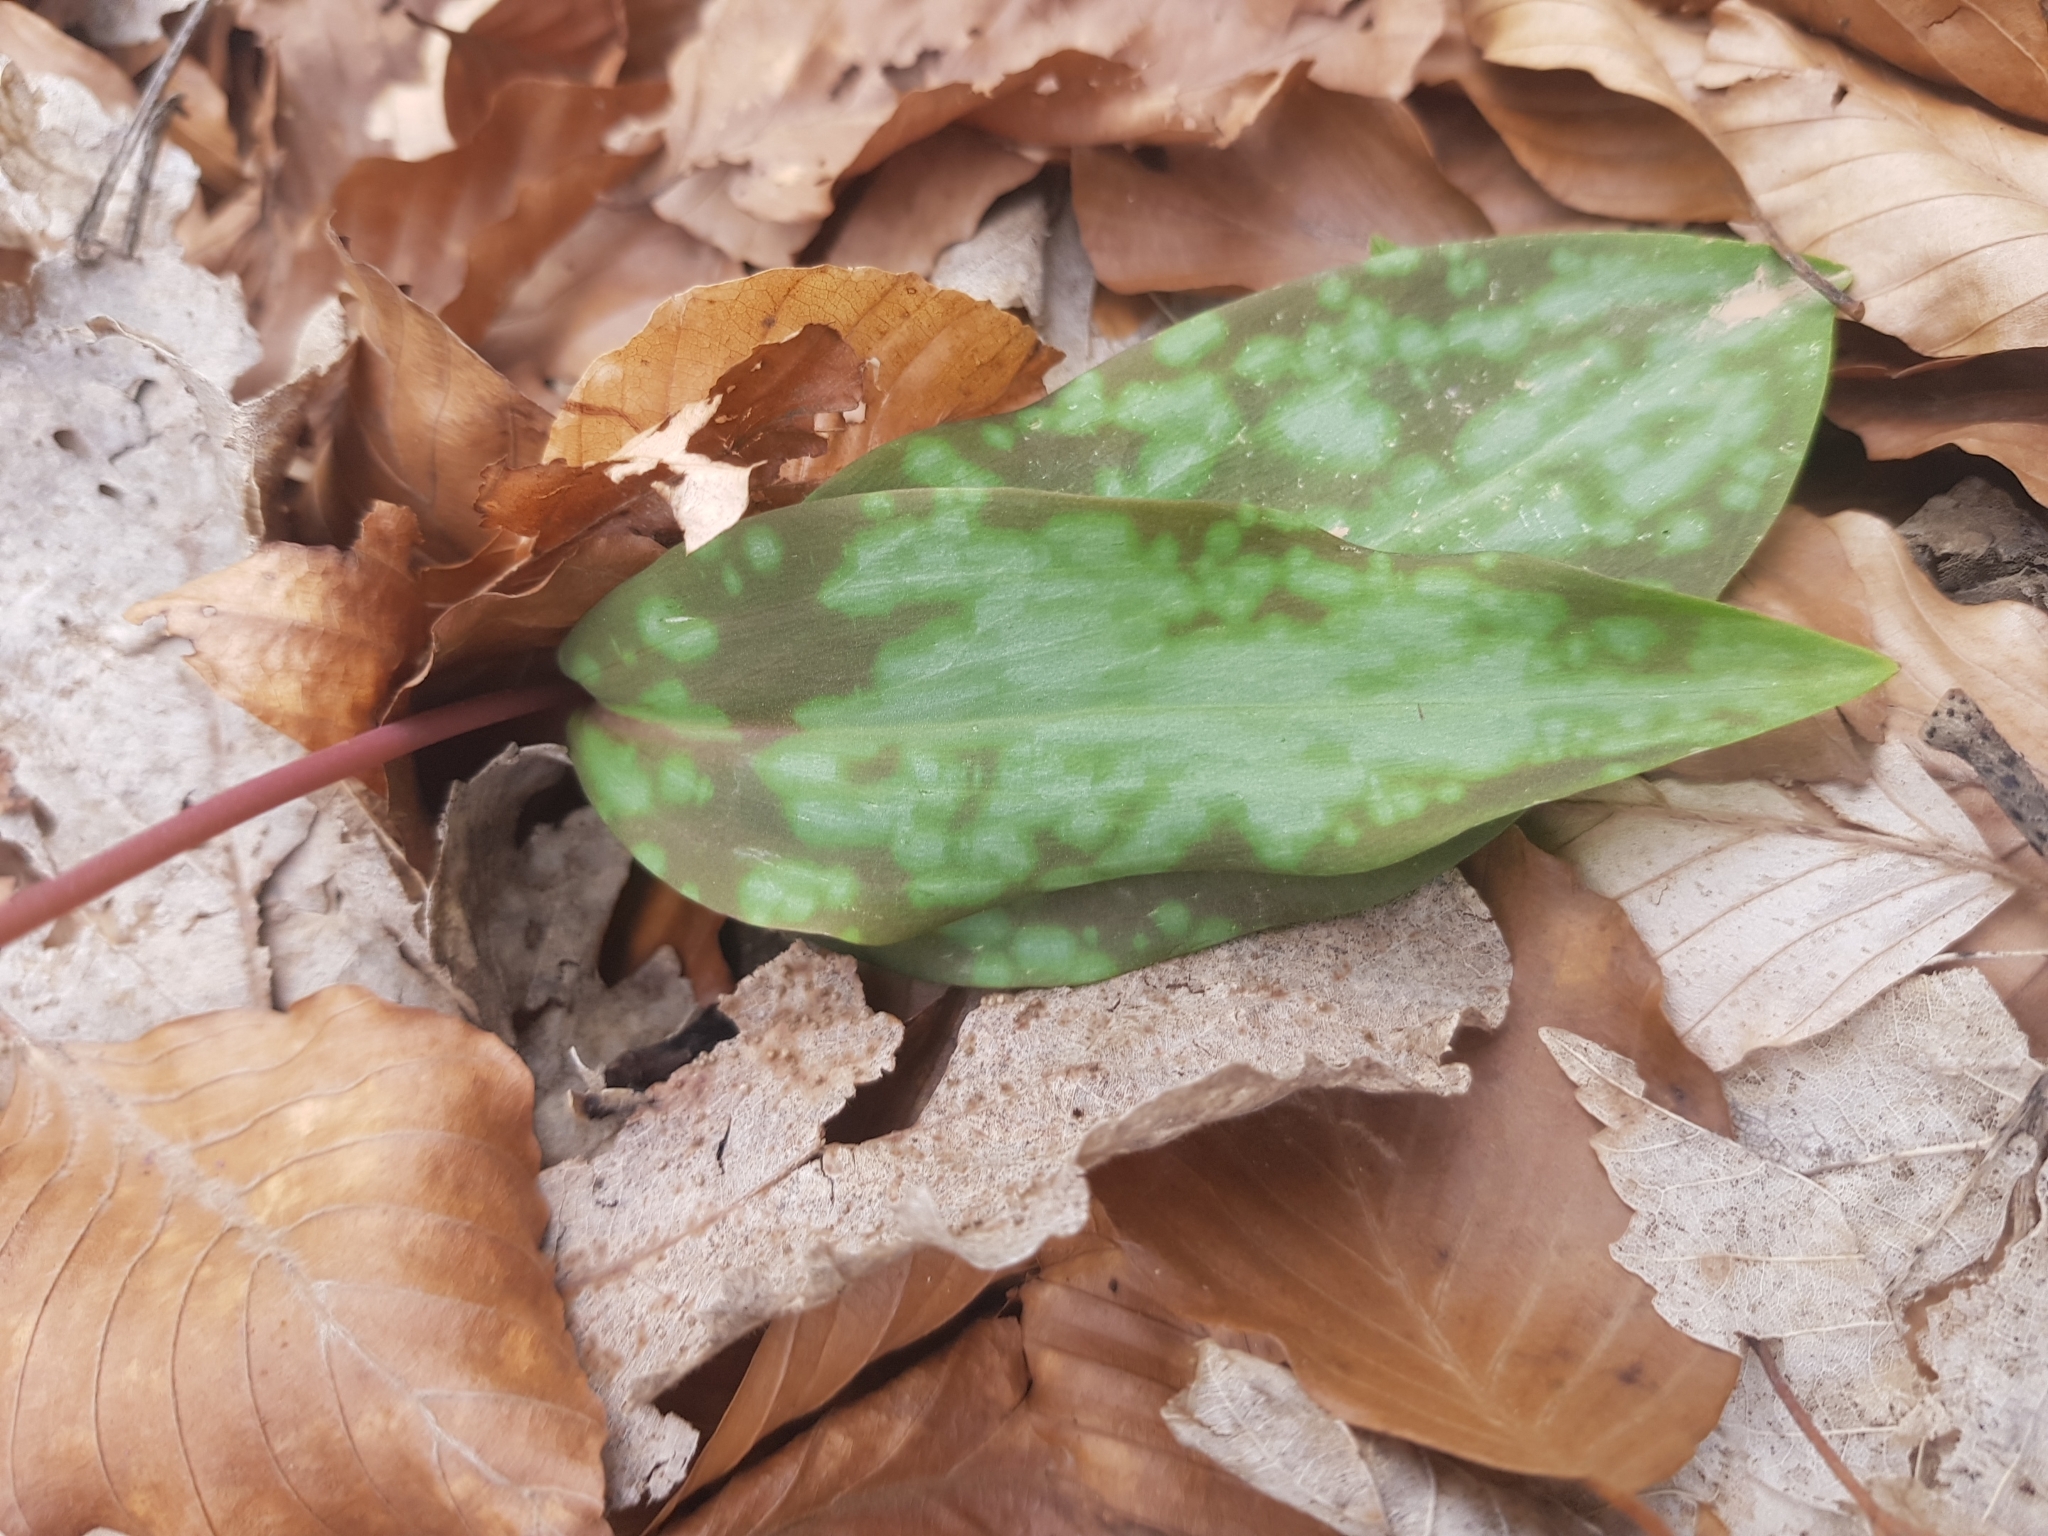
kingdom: Plantae
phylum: Tracheophyta
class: Liliopsida
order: Liliales
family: Liliaceae
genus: Erythronium
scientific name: Erythronium dens-canis
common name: Dog's-tooth-violet
